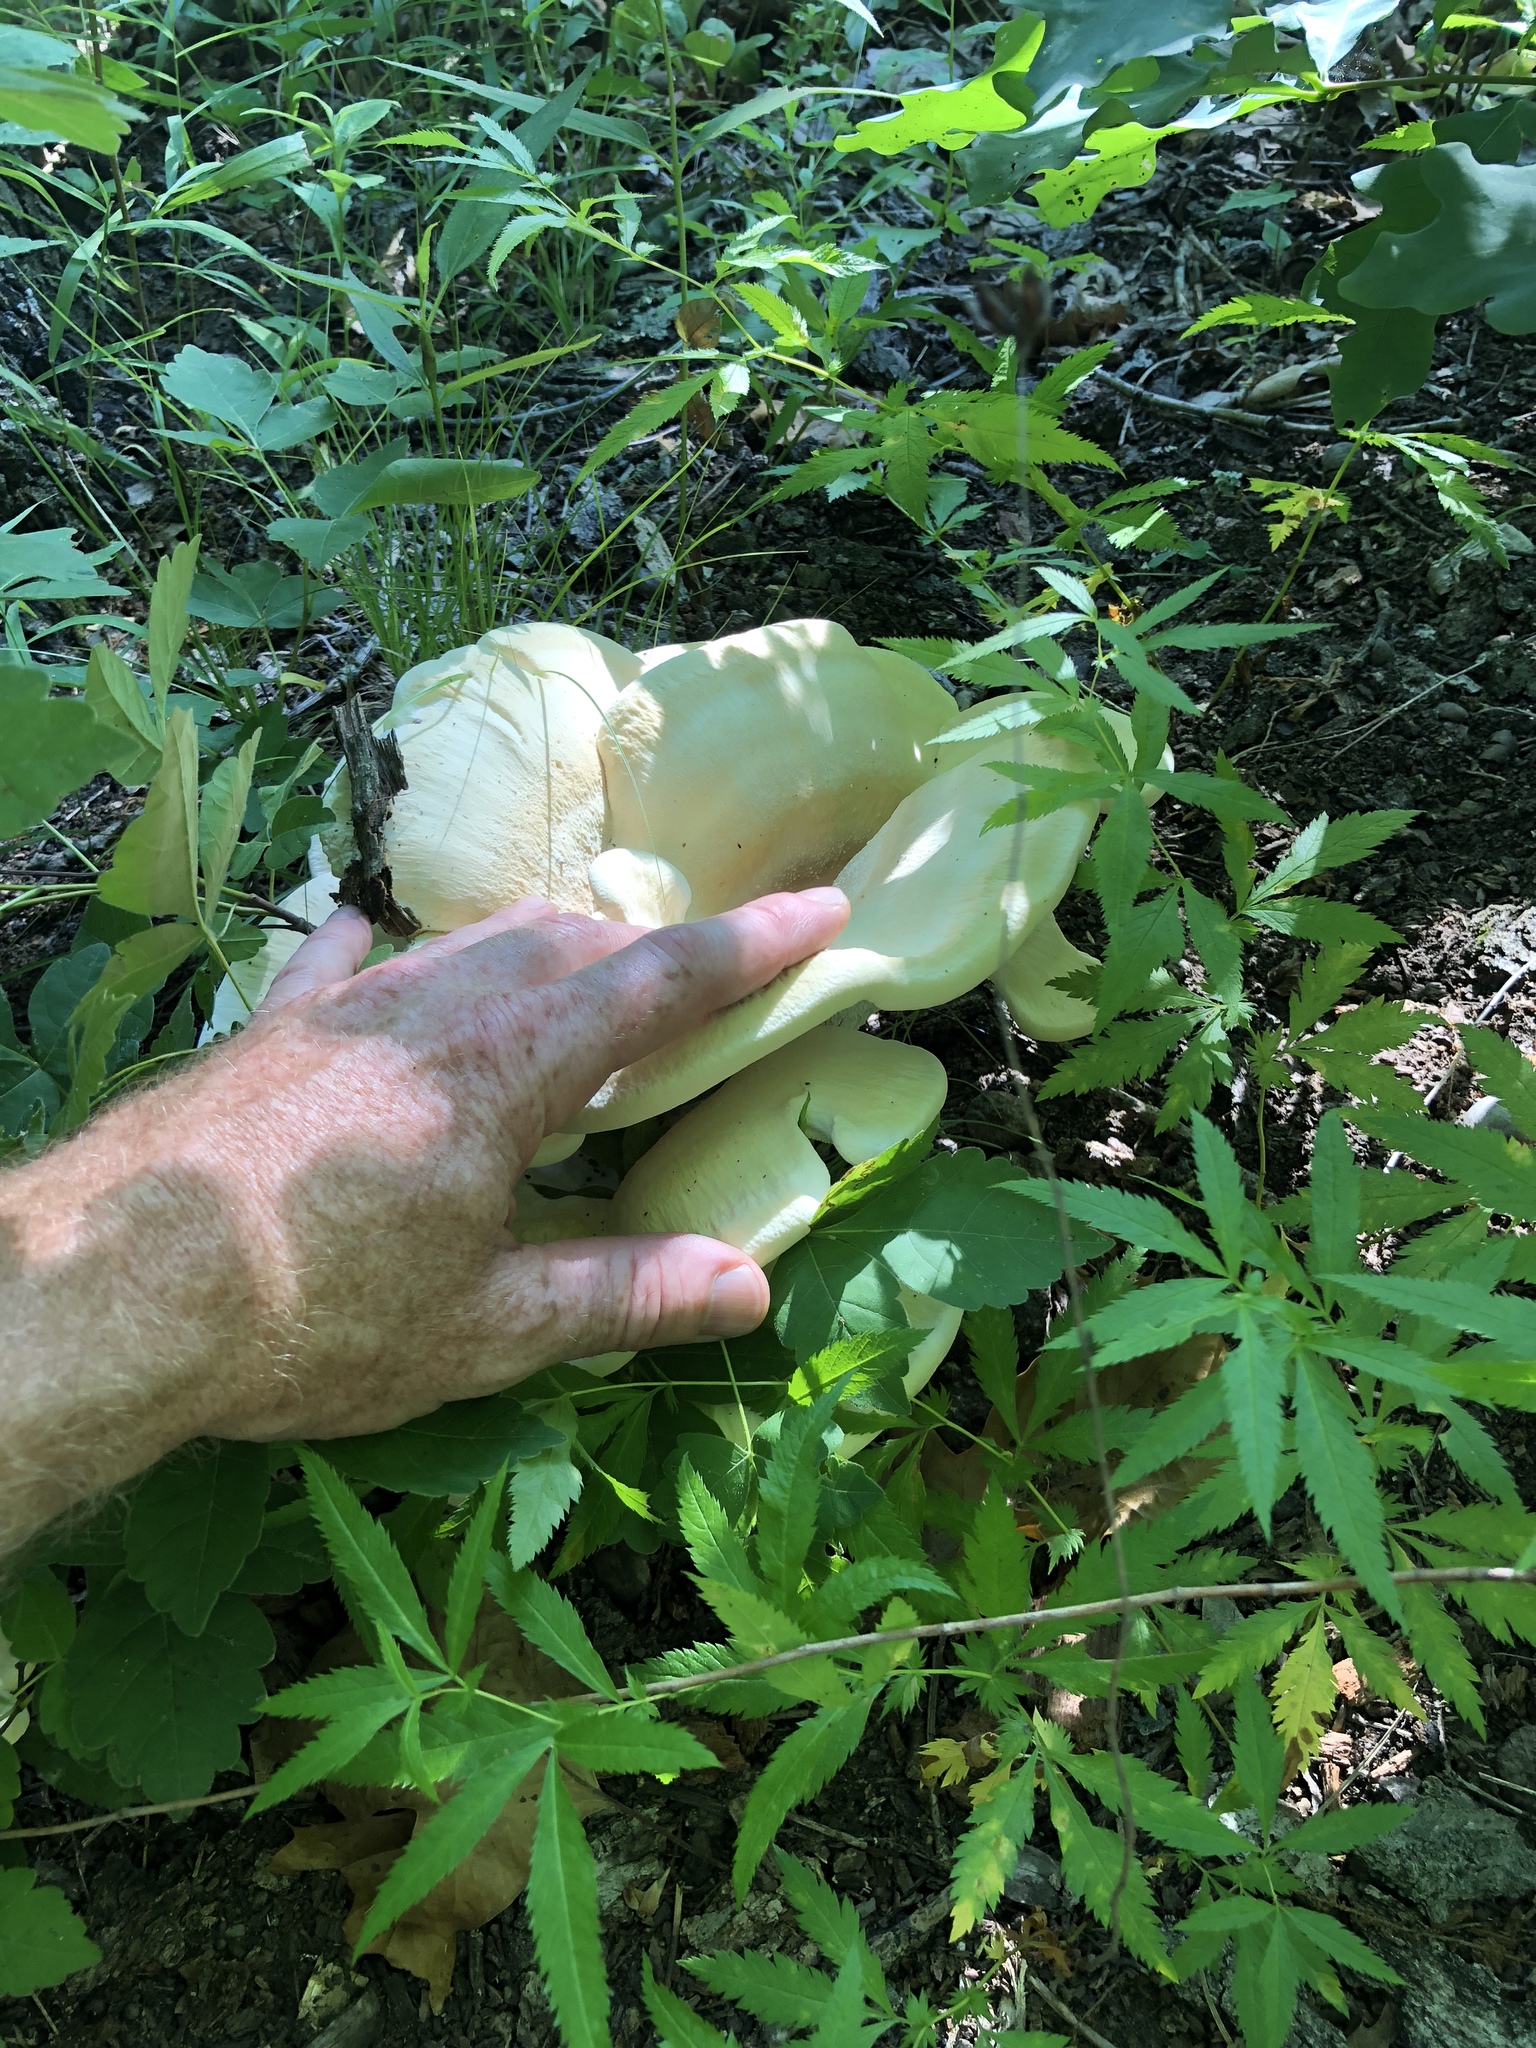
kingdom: Fungi
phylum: Basidiomycota
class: Agaricomycetes
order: Russulales
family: Bondarzewiaceae
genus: Bondarzewia
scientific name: Bondarzewia berkeleyi
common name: Berkeley's polypore
